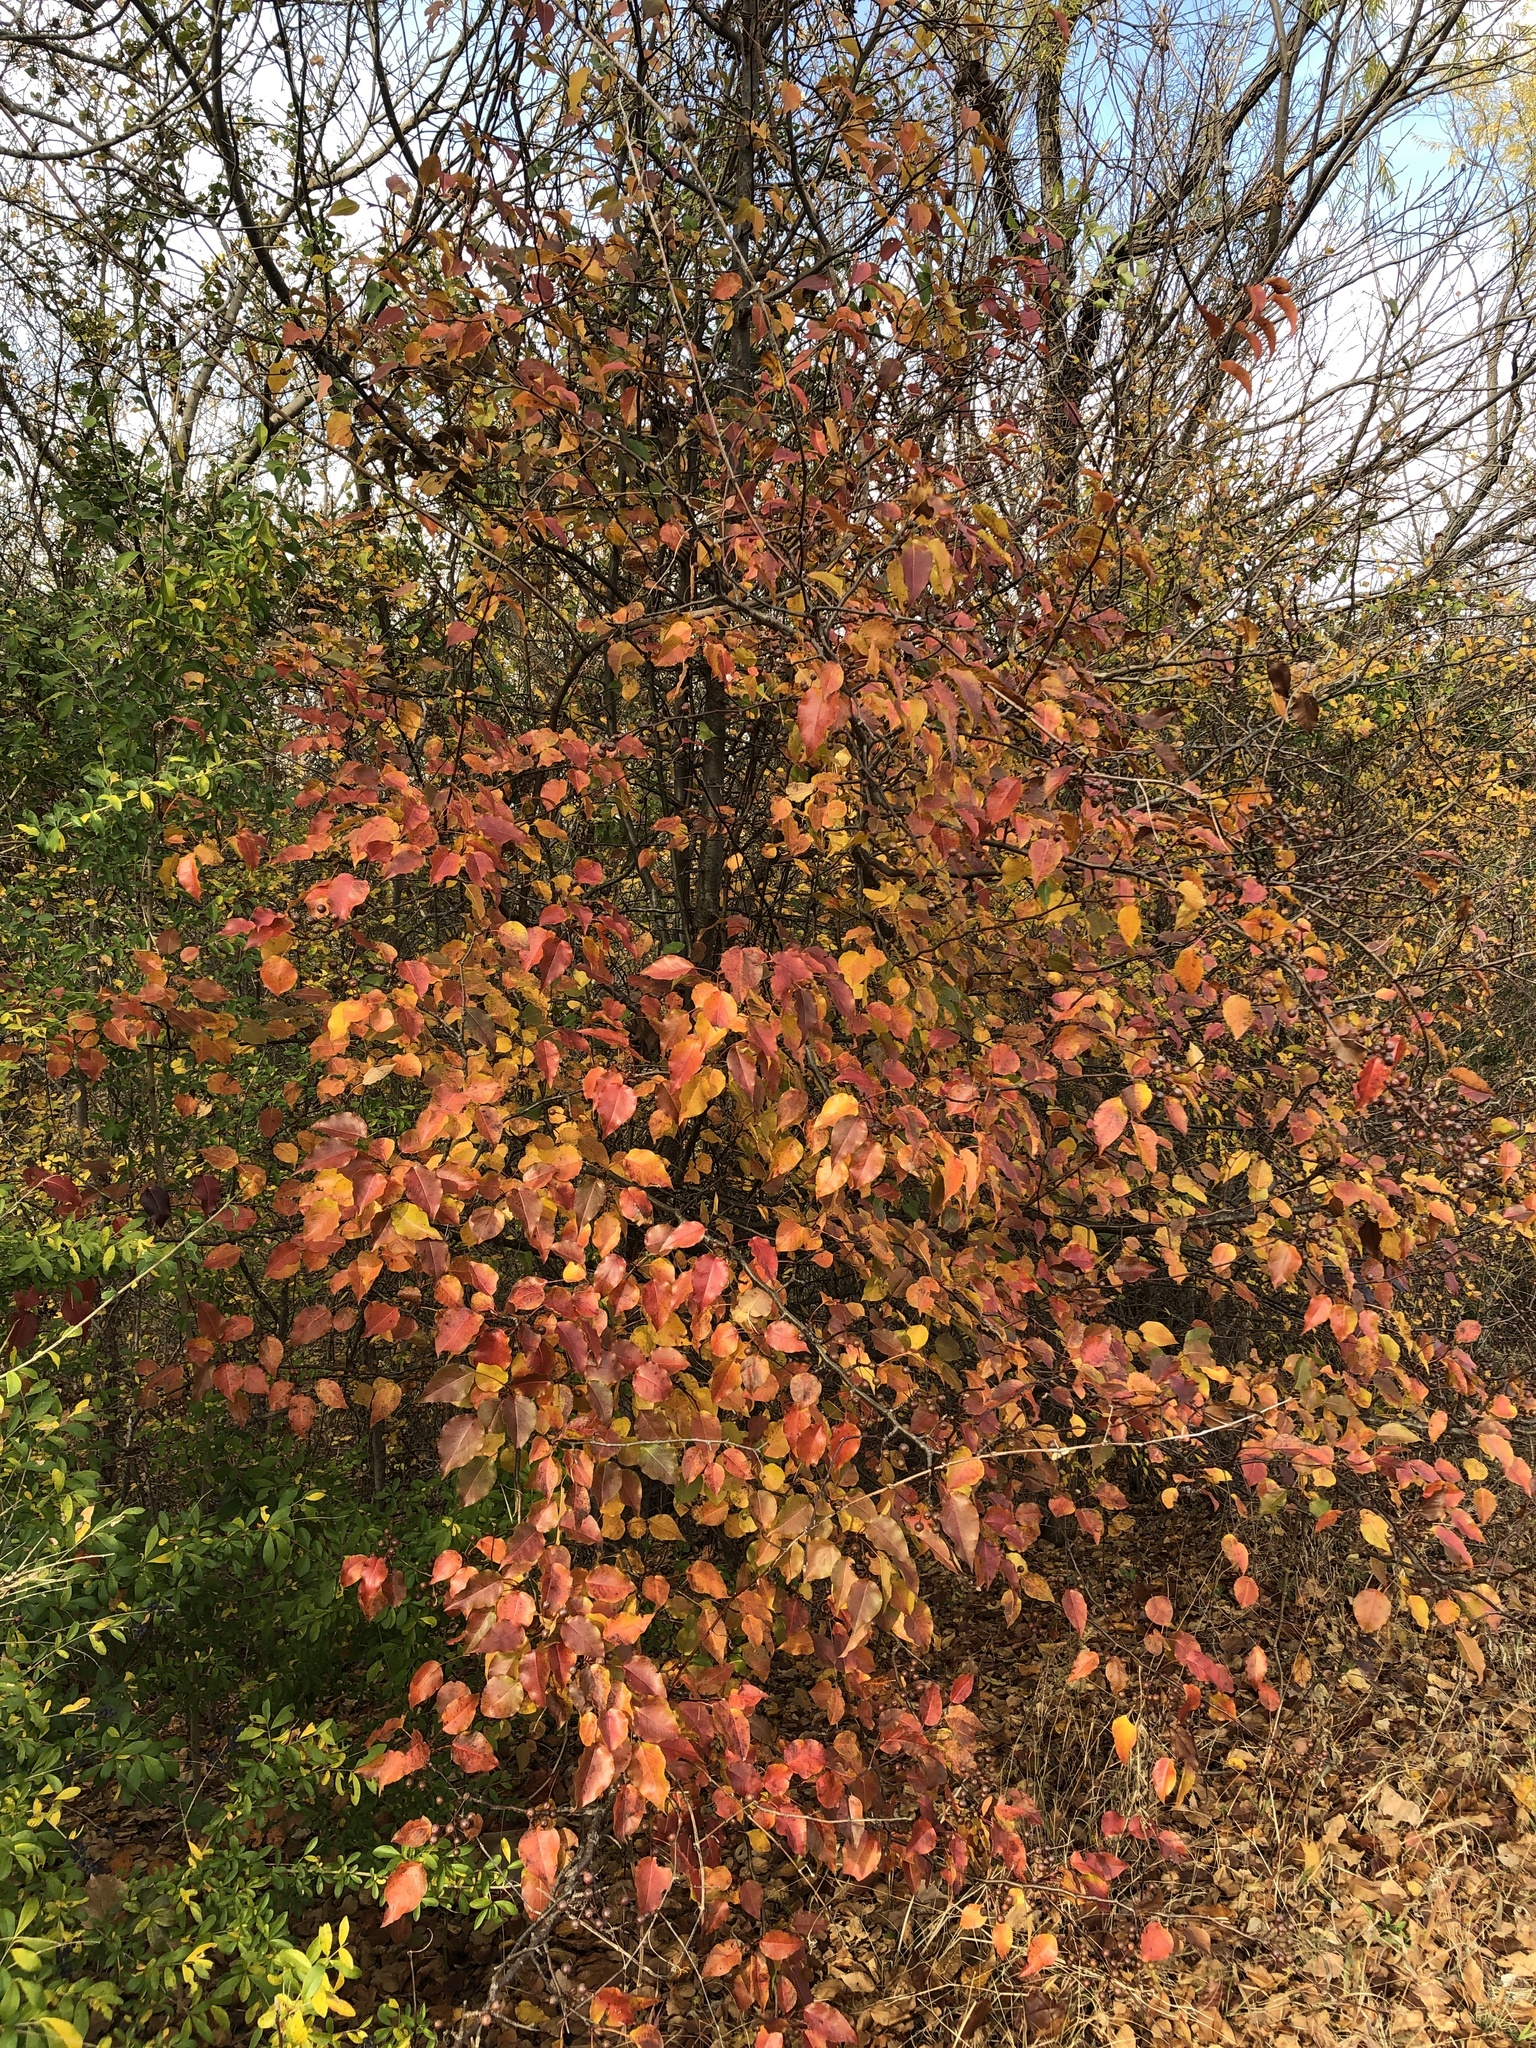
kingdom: Plantae
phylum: Tracheophyta
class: Magnoliopsida
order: Rosales
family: Rosaceae
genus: Pyrus
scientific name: Pyrus calleryana
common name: Callery pear
